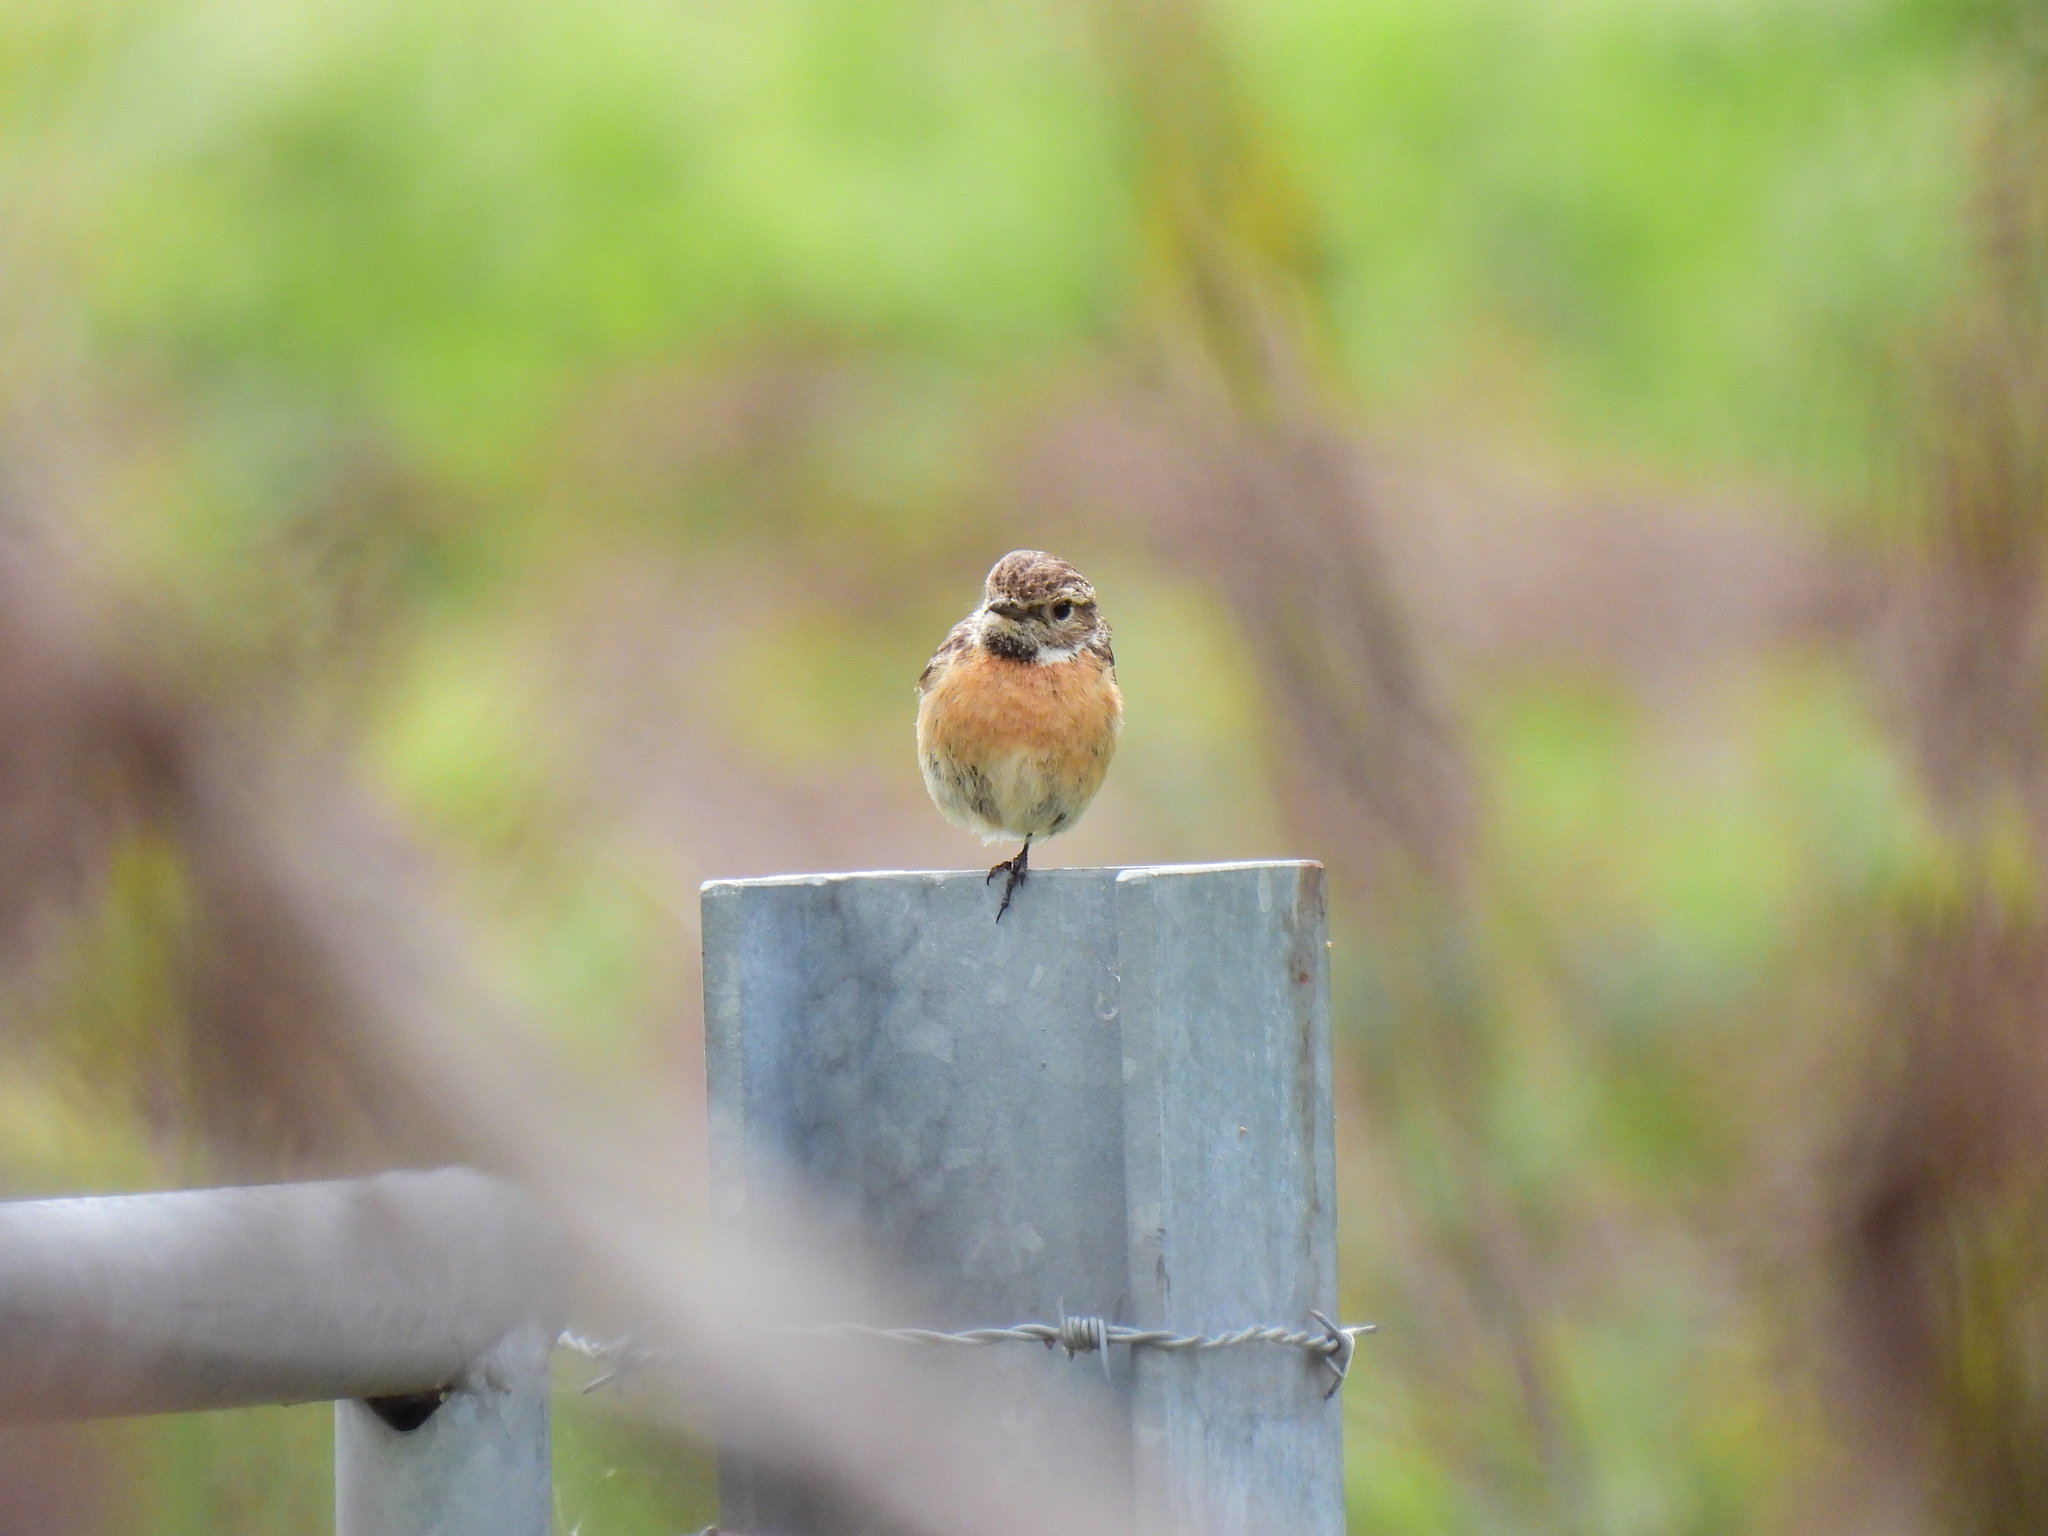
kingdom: Animalia
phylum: Chordata
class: Aves
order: Passeriformes
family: Muscicapidae
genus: Saxicola
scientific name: Saxicola rubicola
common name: European stonechat
